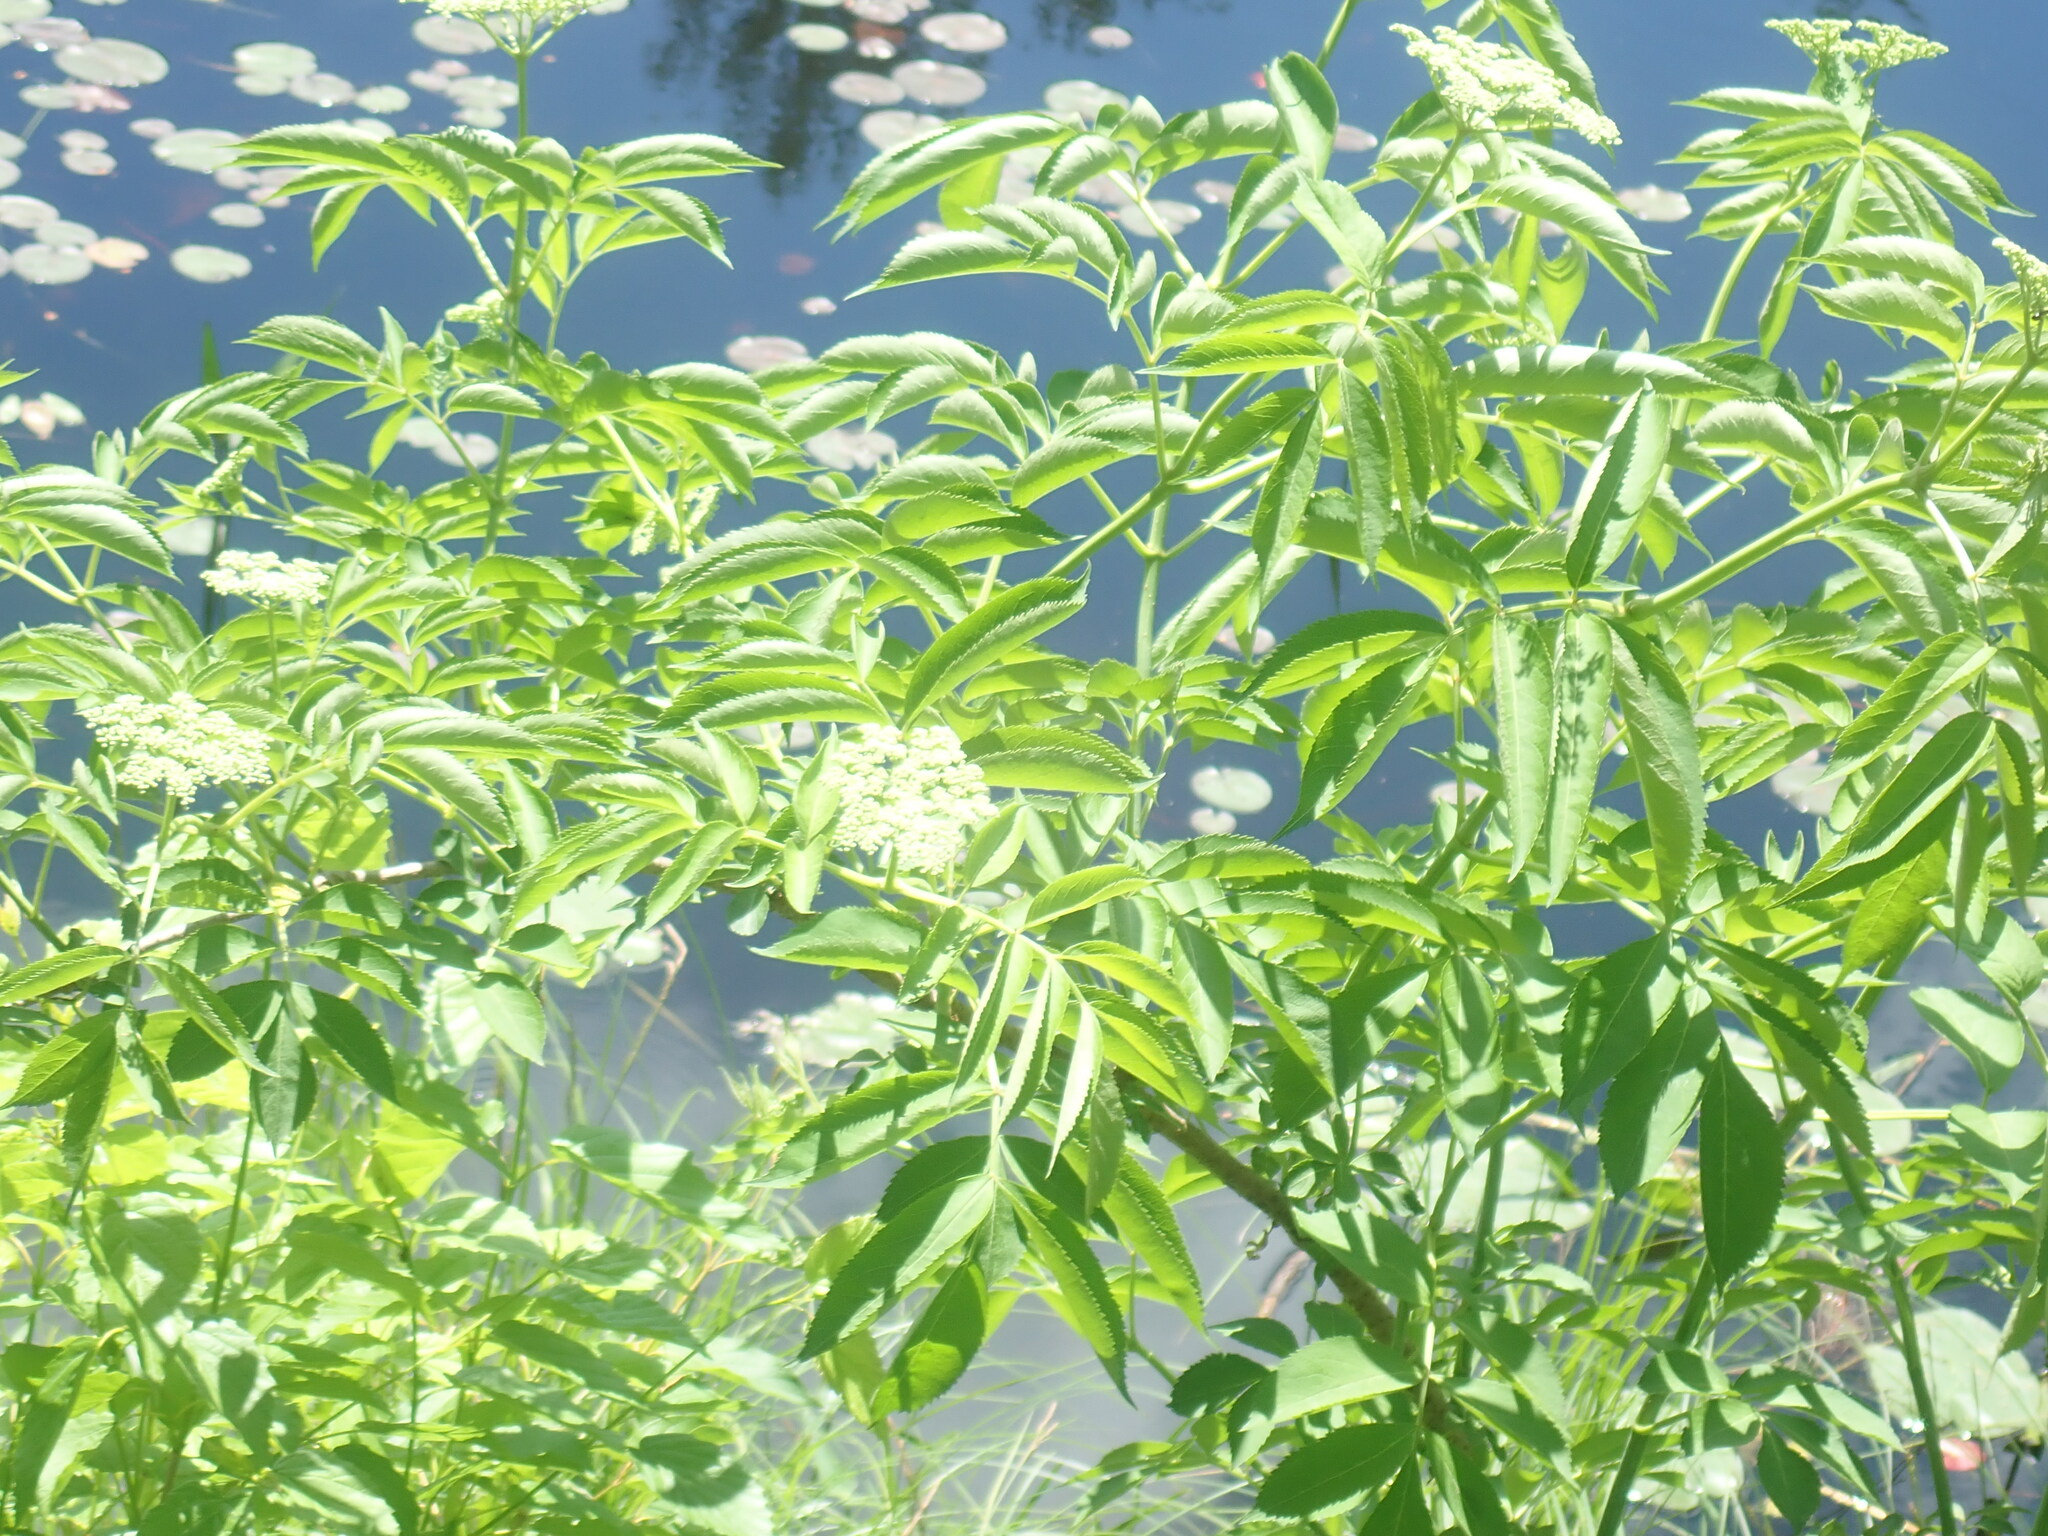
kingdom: Plantae
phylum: Tracheophyta
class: Magnoliopsida
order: Dipsacales
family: Viburnaceae
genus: Sambucus
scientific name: Sambucus canadensis
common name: American elder
